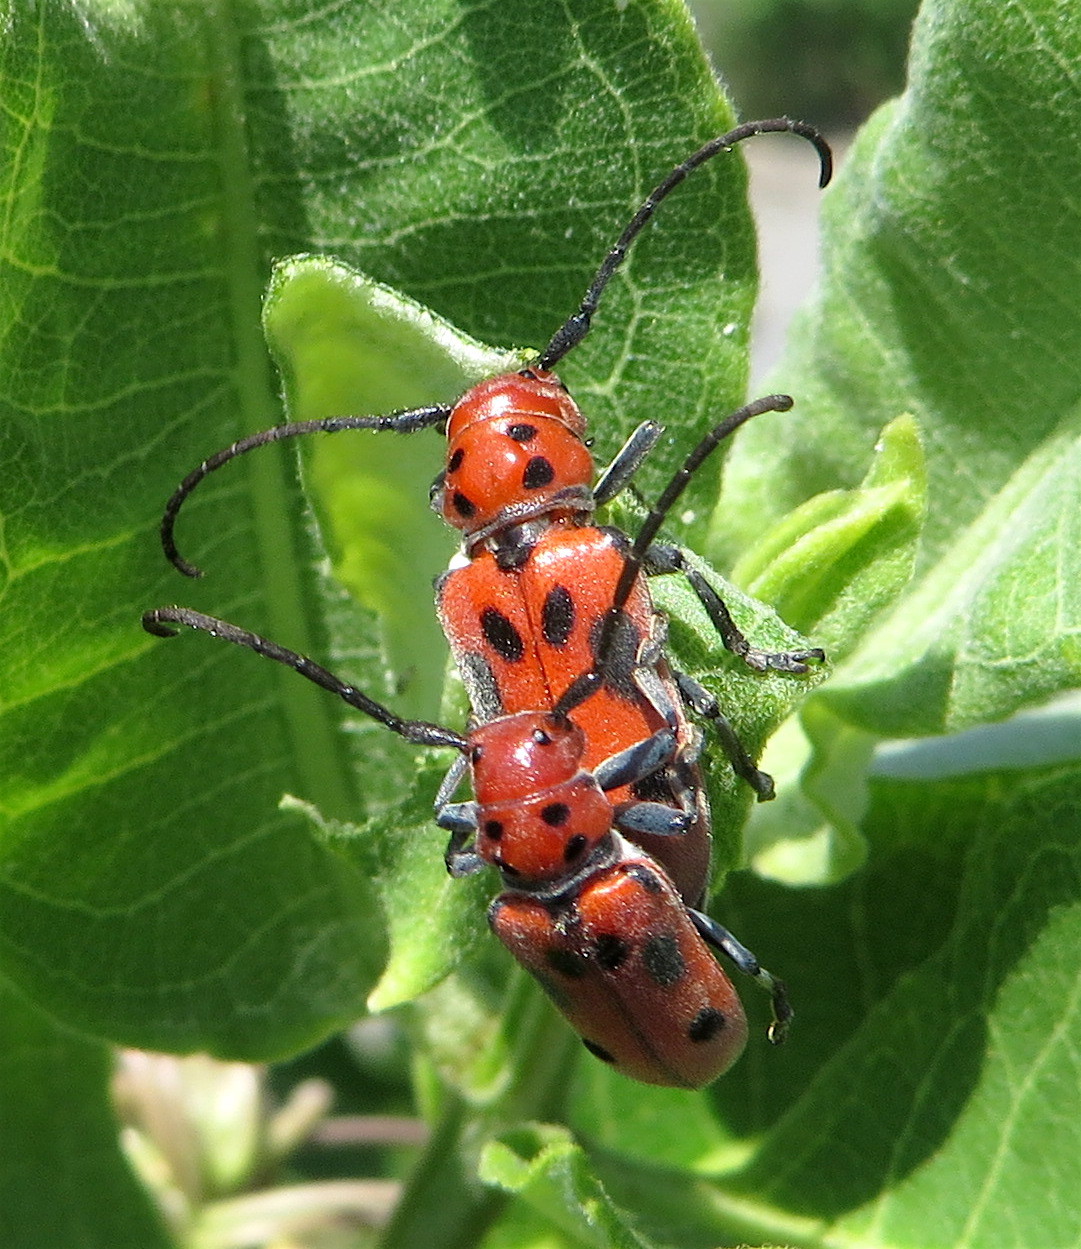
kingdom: Animalia
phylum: Arthropoda
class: Insecta
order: Coleoptera
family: Cerambycidae
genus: Tetraopes
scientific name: Tetraopes tetrophthalmus
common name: Red milkweed beetle
